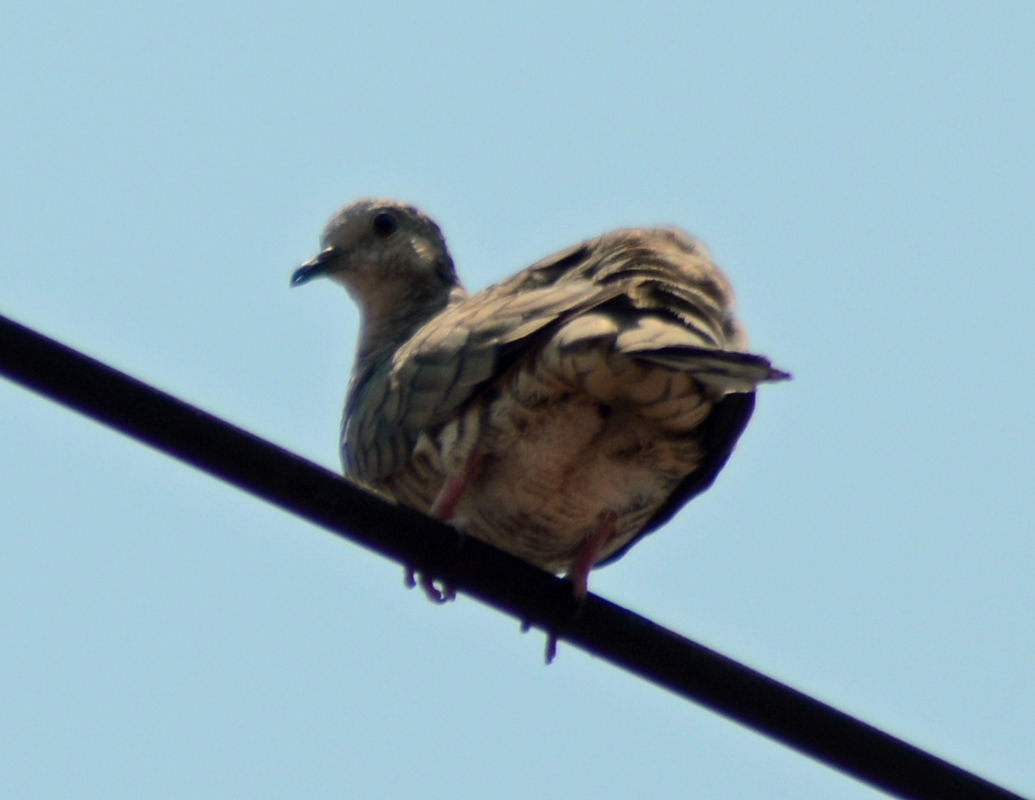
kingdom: Animalia
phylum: Chordata
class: Aves
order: Columbiformes
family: Columbidae
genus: Columbina
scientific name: Columbina inca
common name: Inca dove
